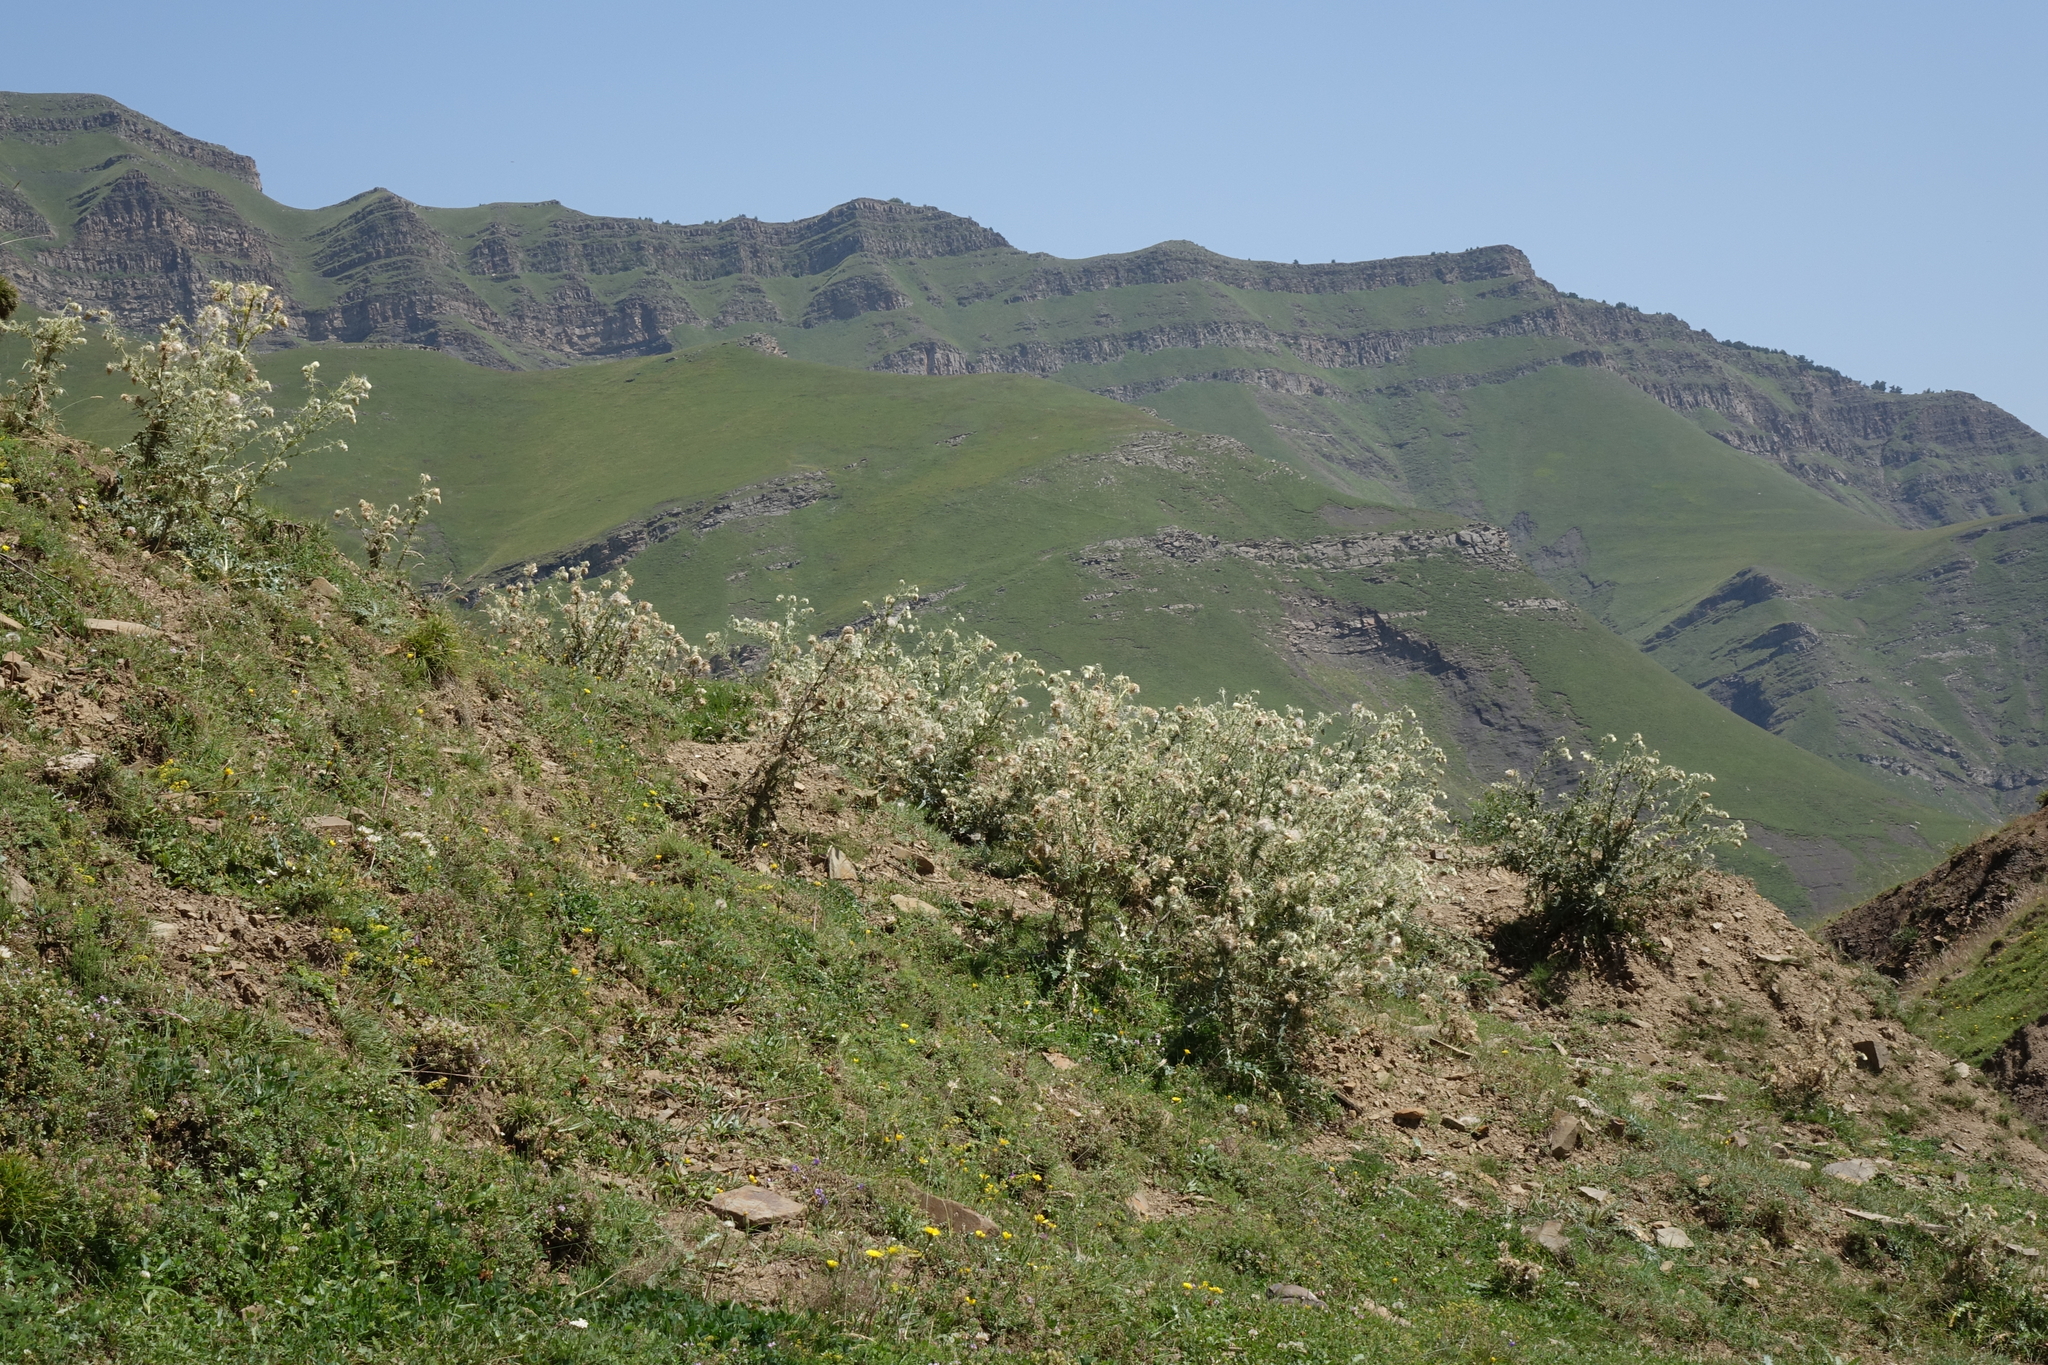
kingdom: Plantae
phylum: Tracheophyta
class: Magnoliopsida
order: Asterales
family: Asteraceae
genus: Cirsium
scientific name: Cirsium echinus
